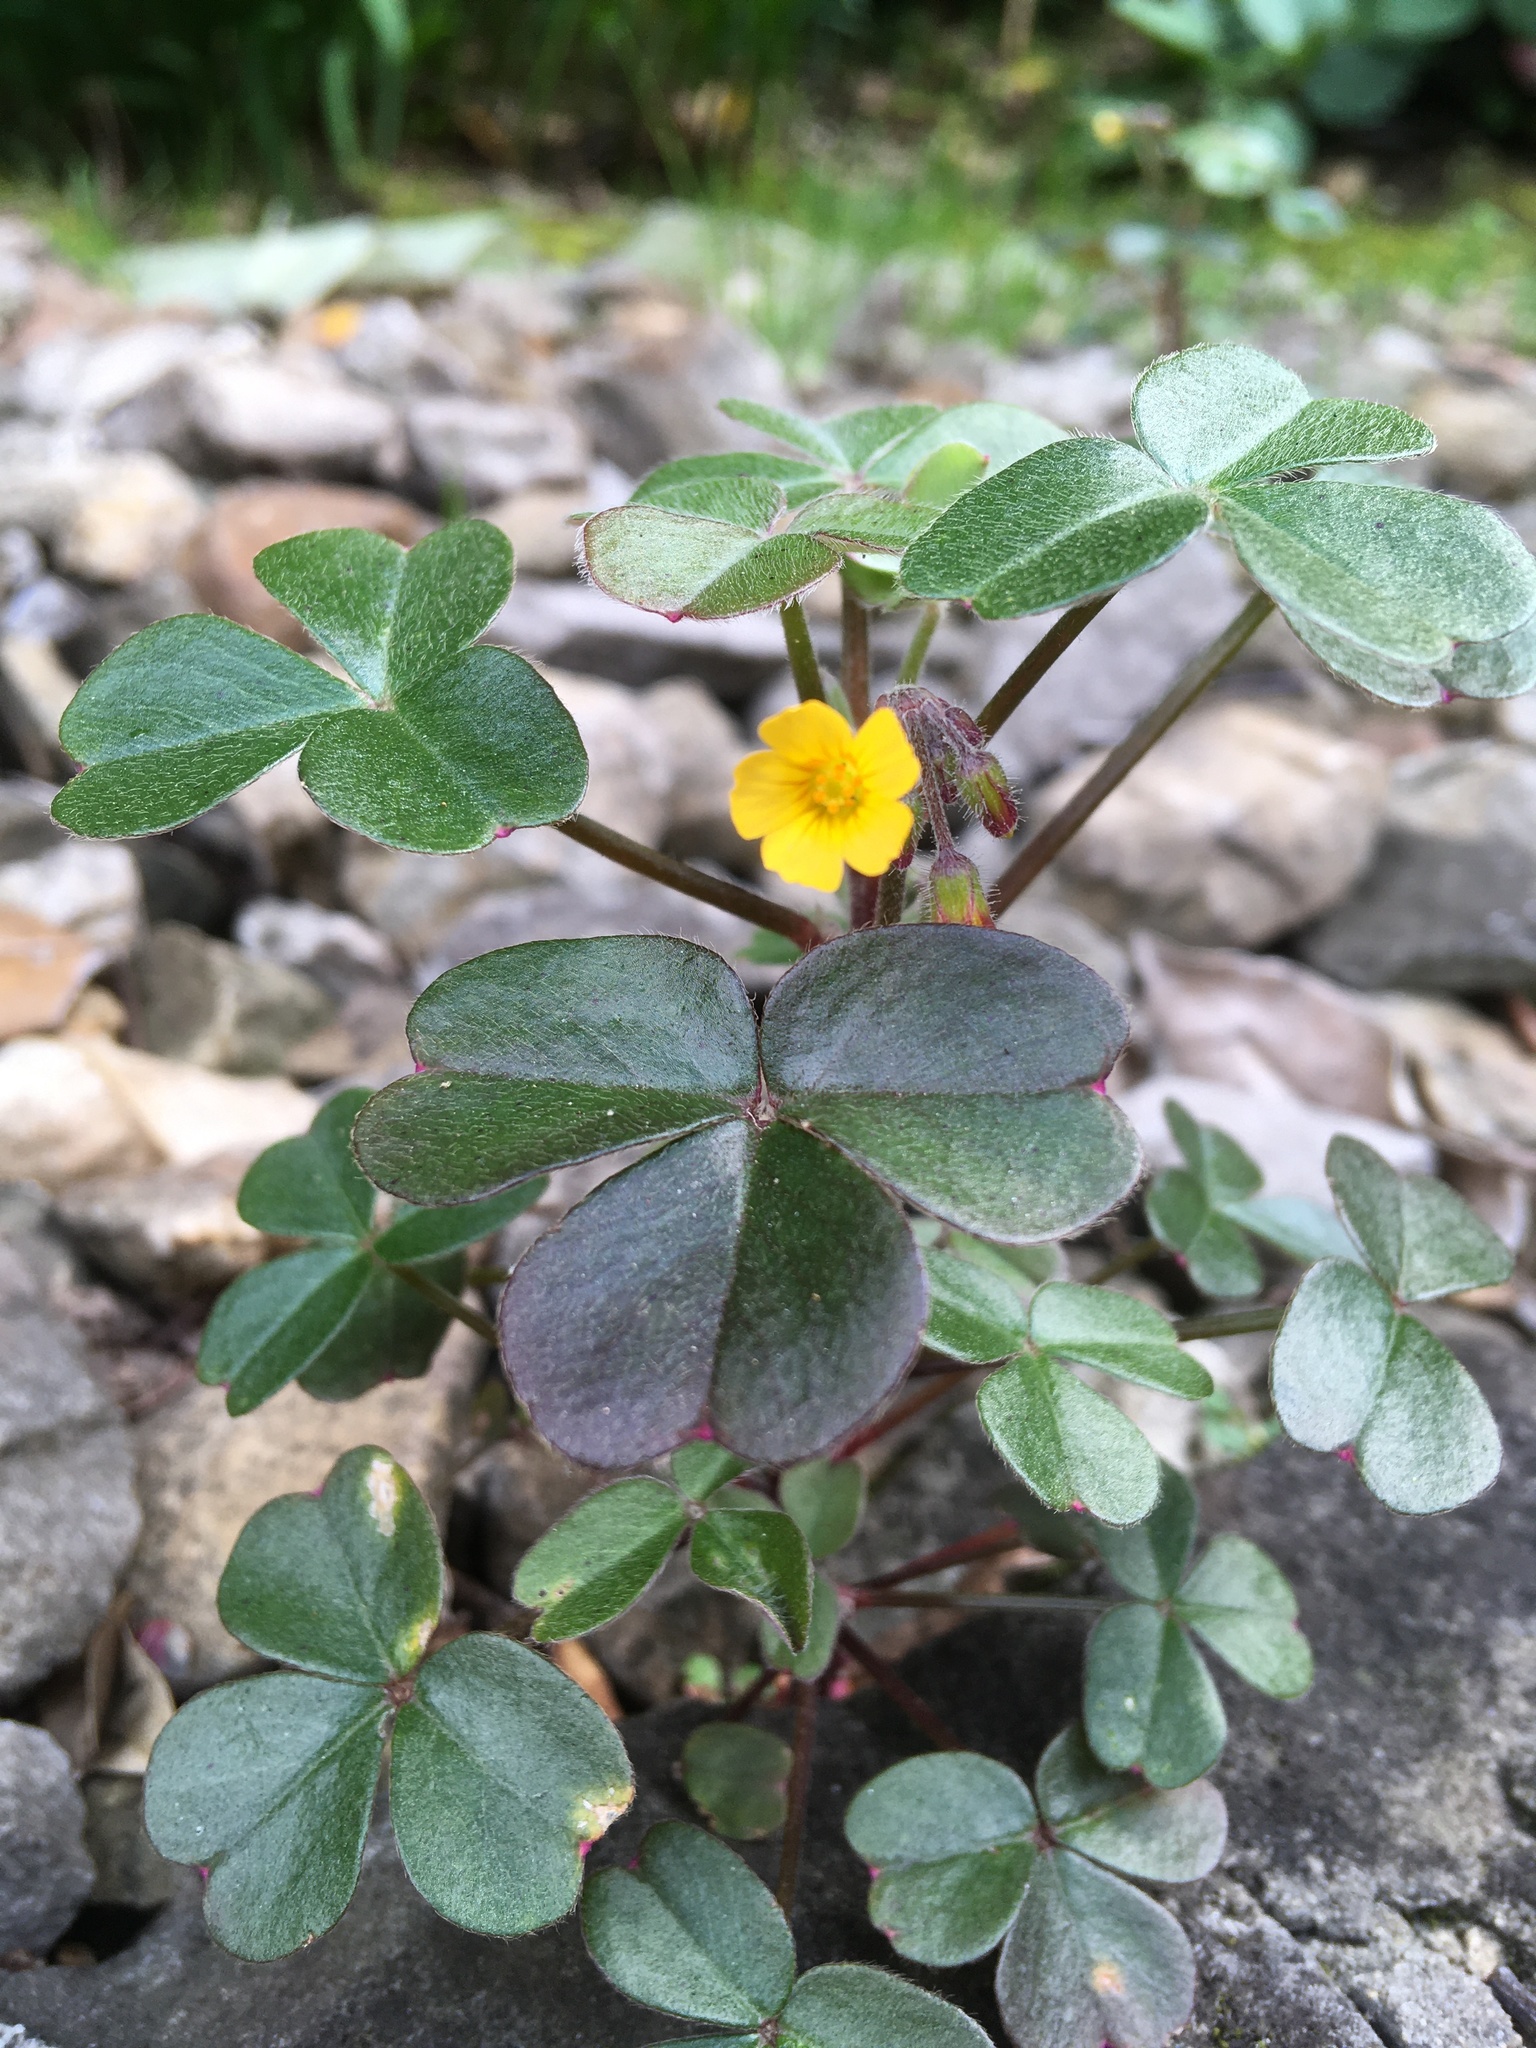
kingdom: Plantae
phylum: Tracheophyta
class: Magnoliopsida
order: Oxalidales
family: Oxalidaceae
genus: Oxalis
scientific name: Oxalis spiralis
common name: Spiral sorrel
